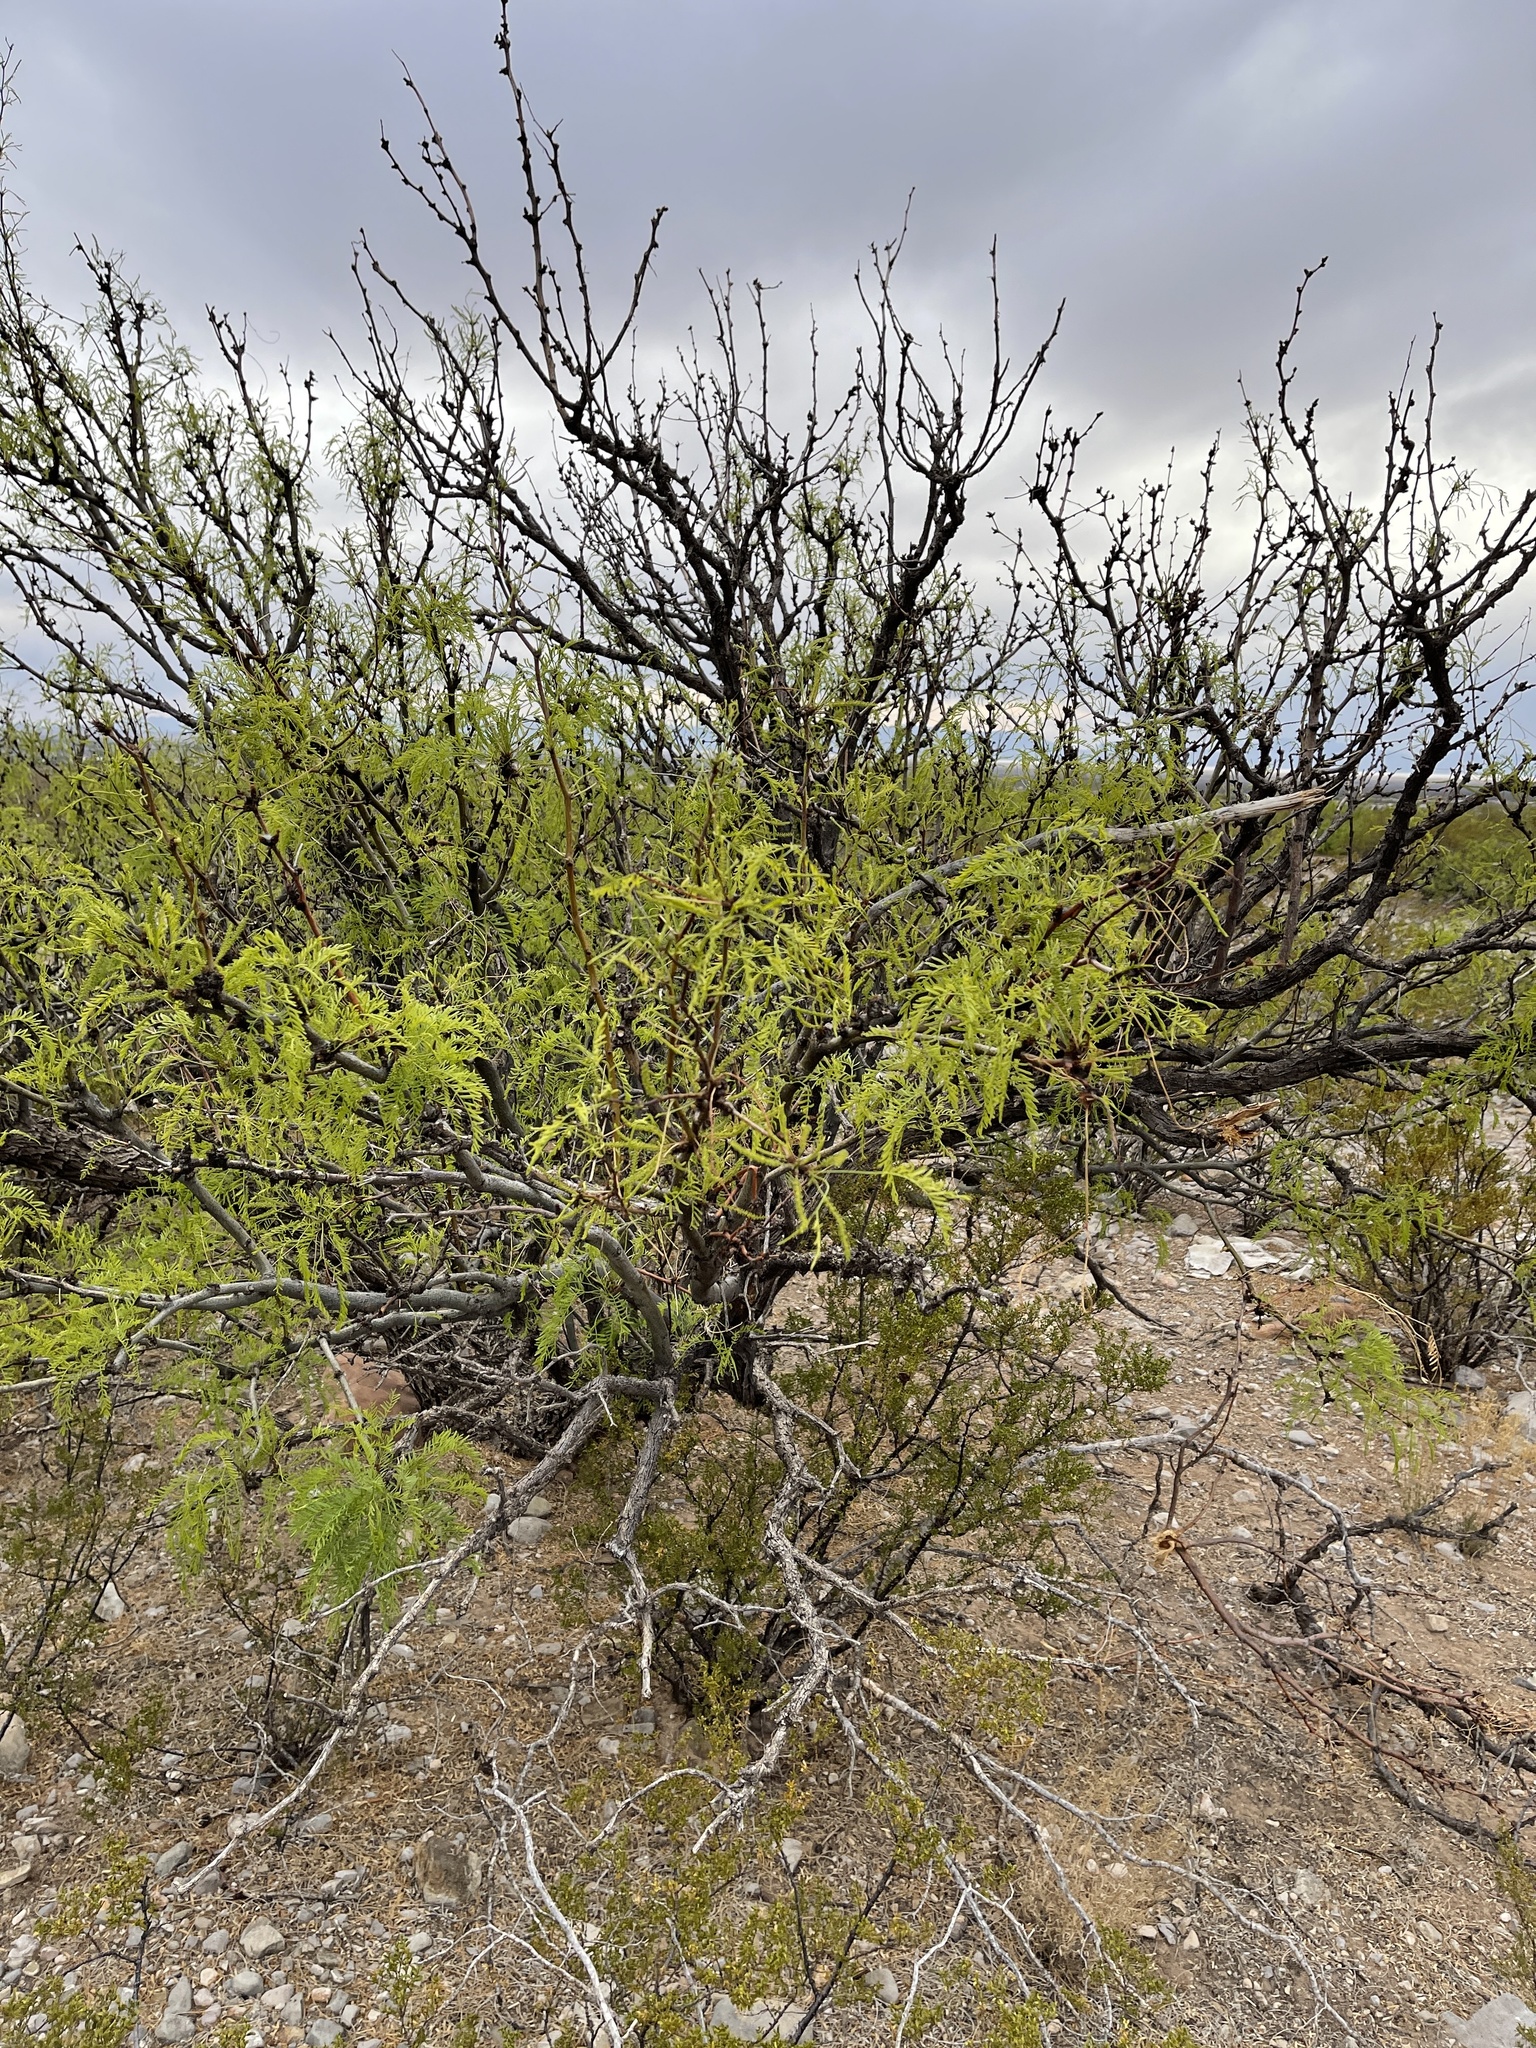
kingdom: Plantae
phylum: Tracheophyta
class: Magnoliopsida
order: Fabales
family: Fabaceae
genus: Prosopis
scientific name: Prosopis glandulosa
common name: Honey mesquite
